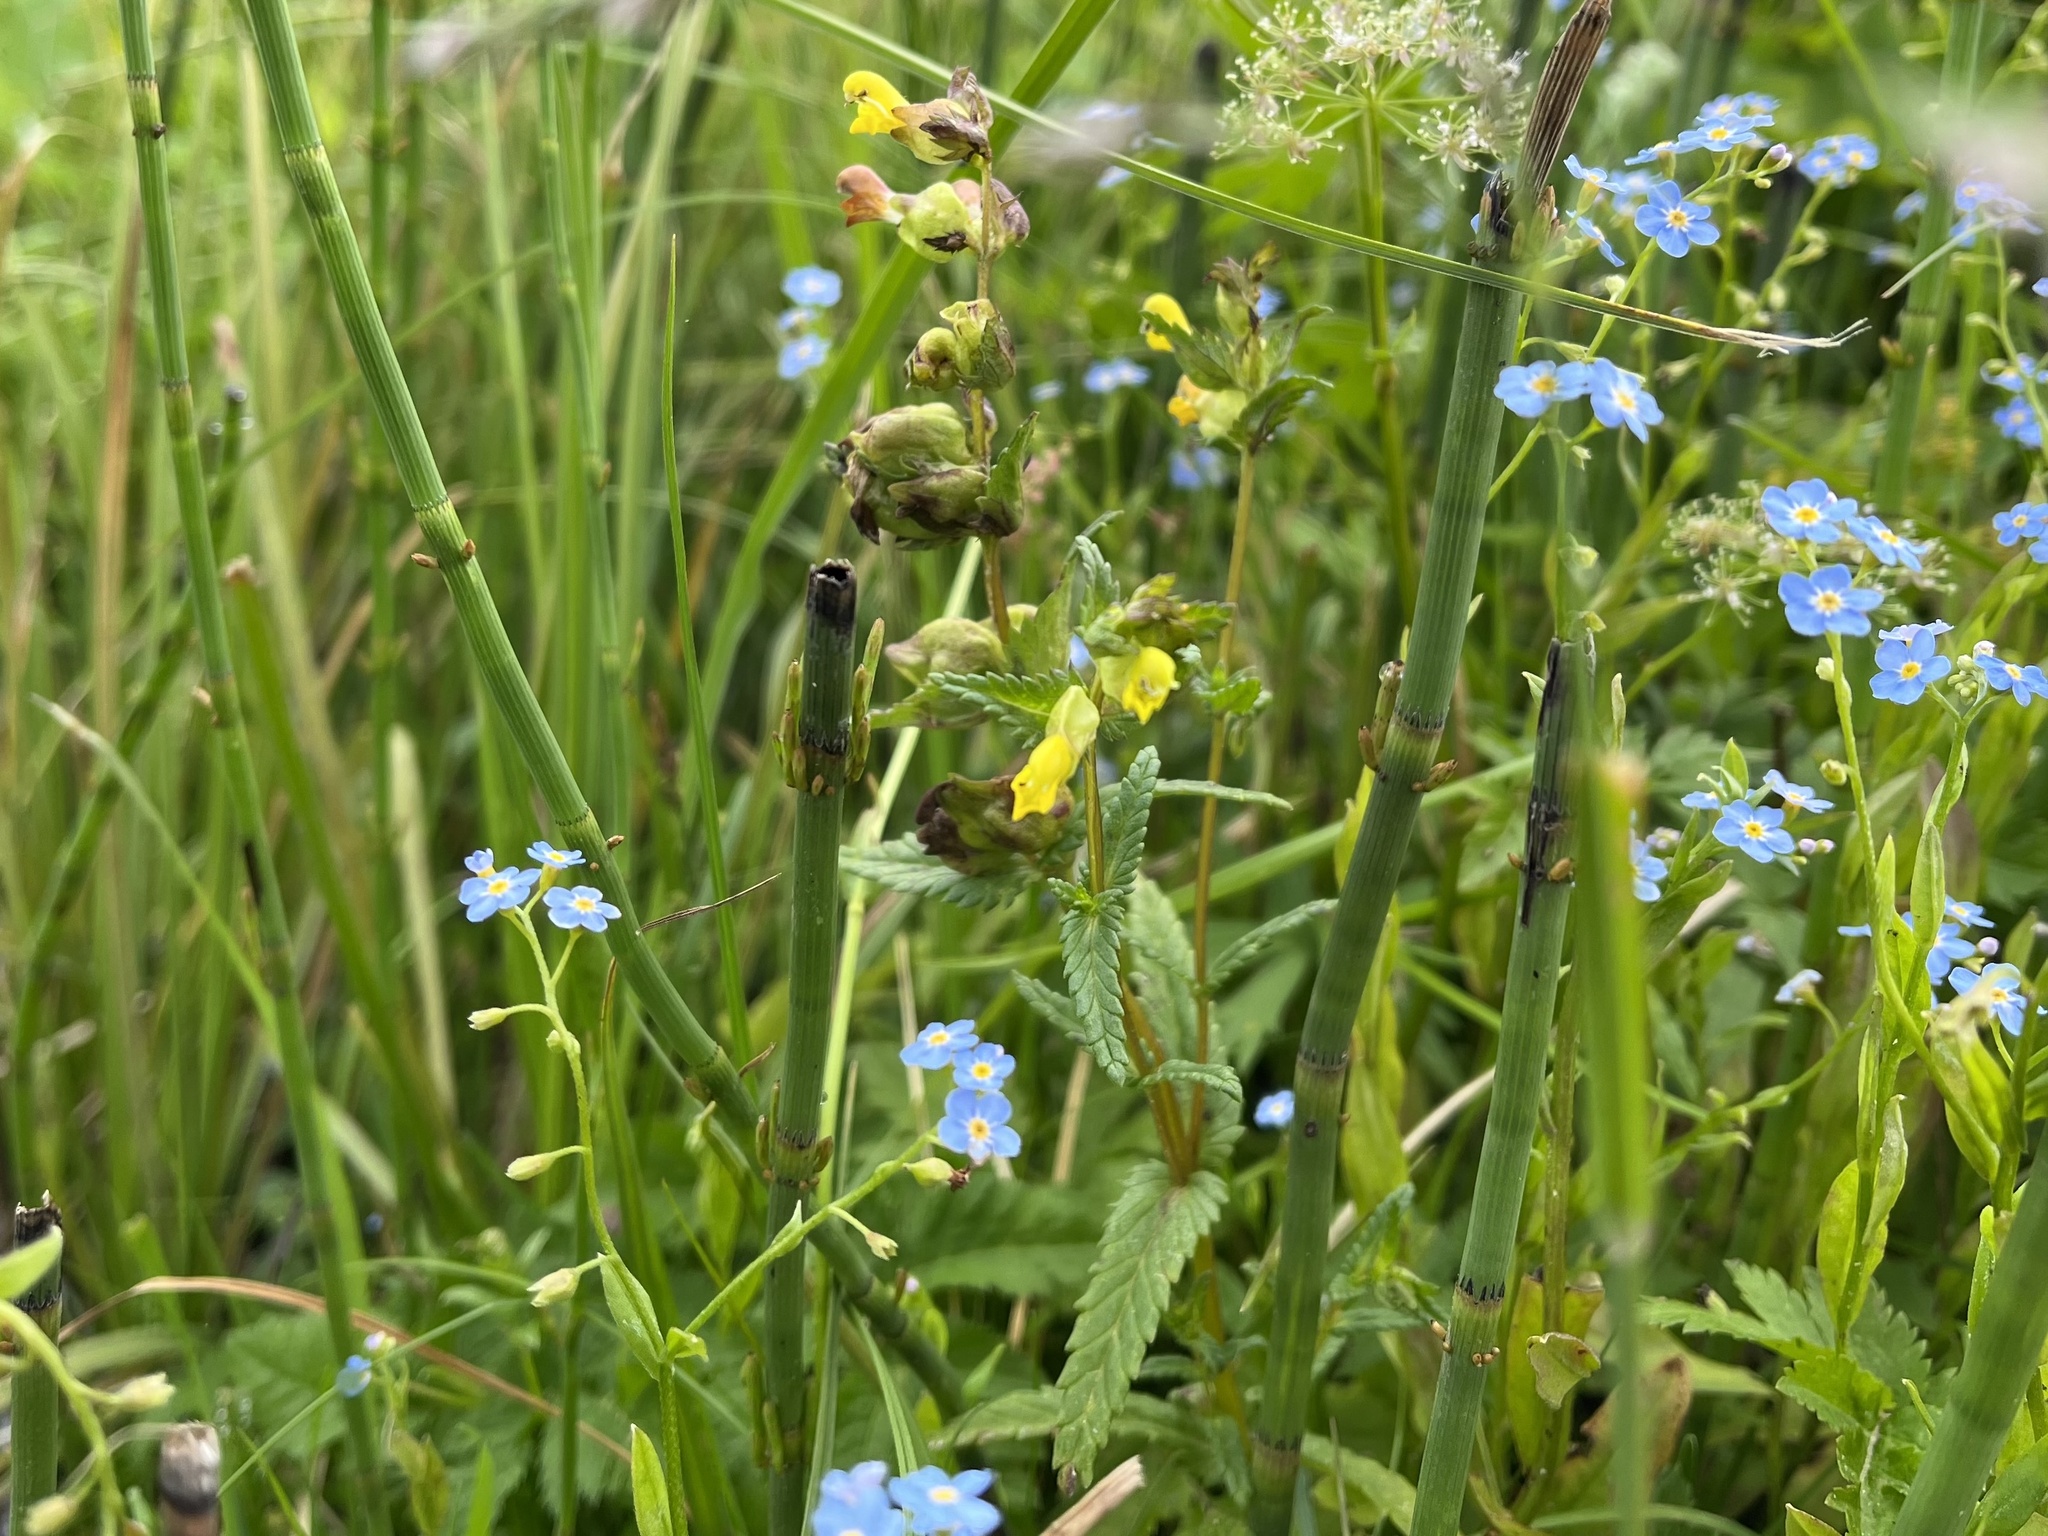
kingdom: Plantae
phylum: Tracheophyta
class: Magnoliopsida
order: Lamiales
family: Orobanchaceae
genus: Rhinanthus
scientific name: Rhinanthus minor
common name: Yellow-rattle
